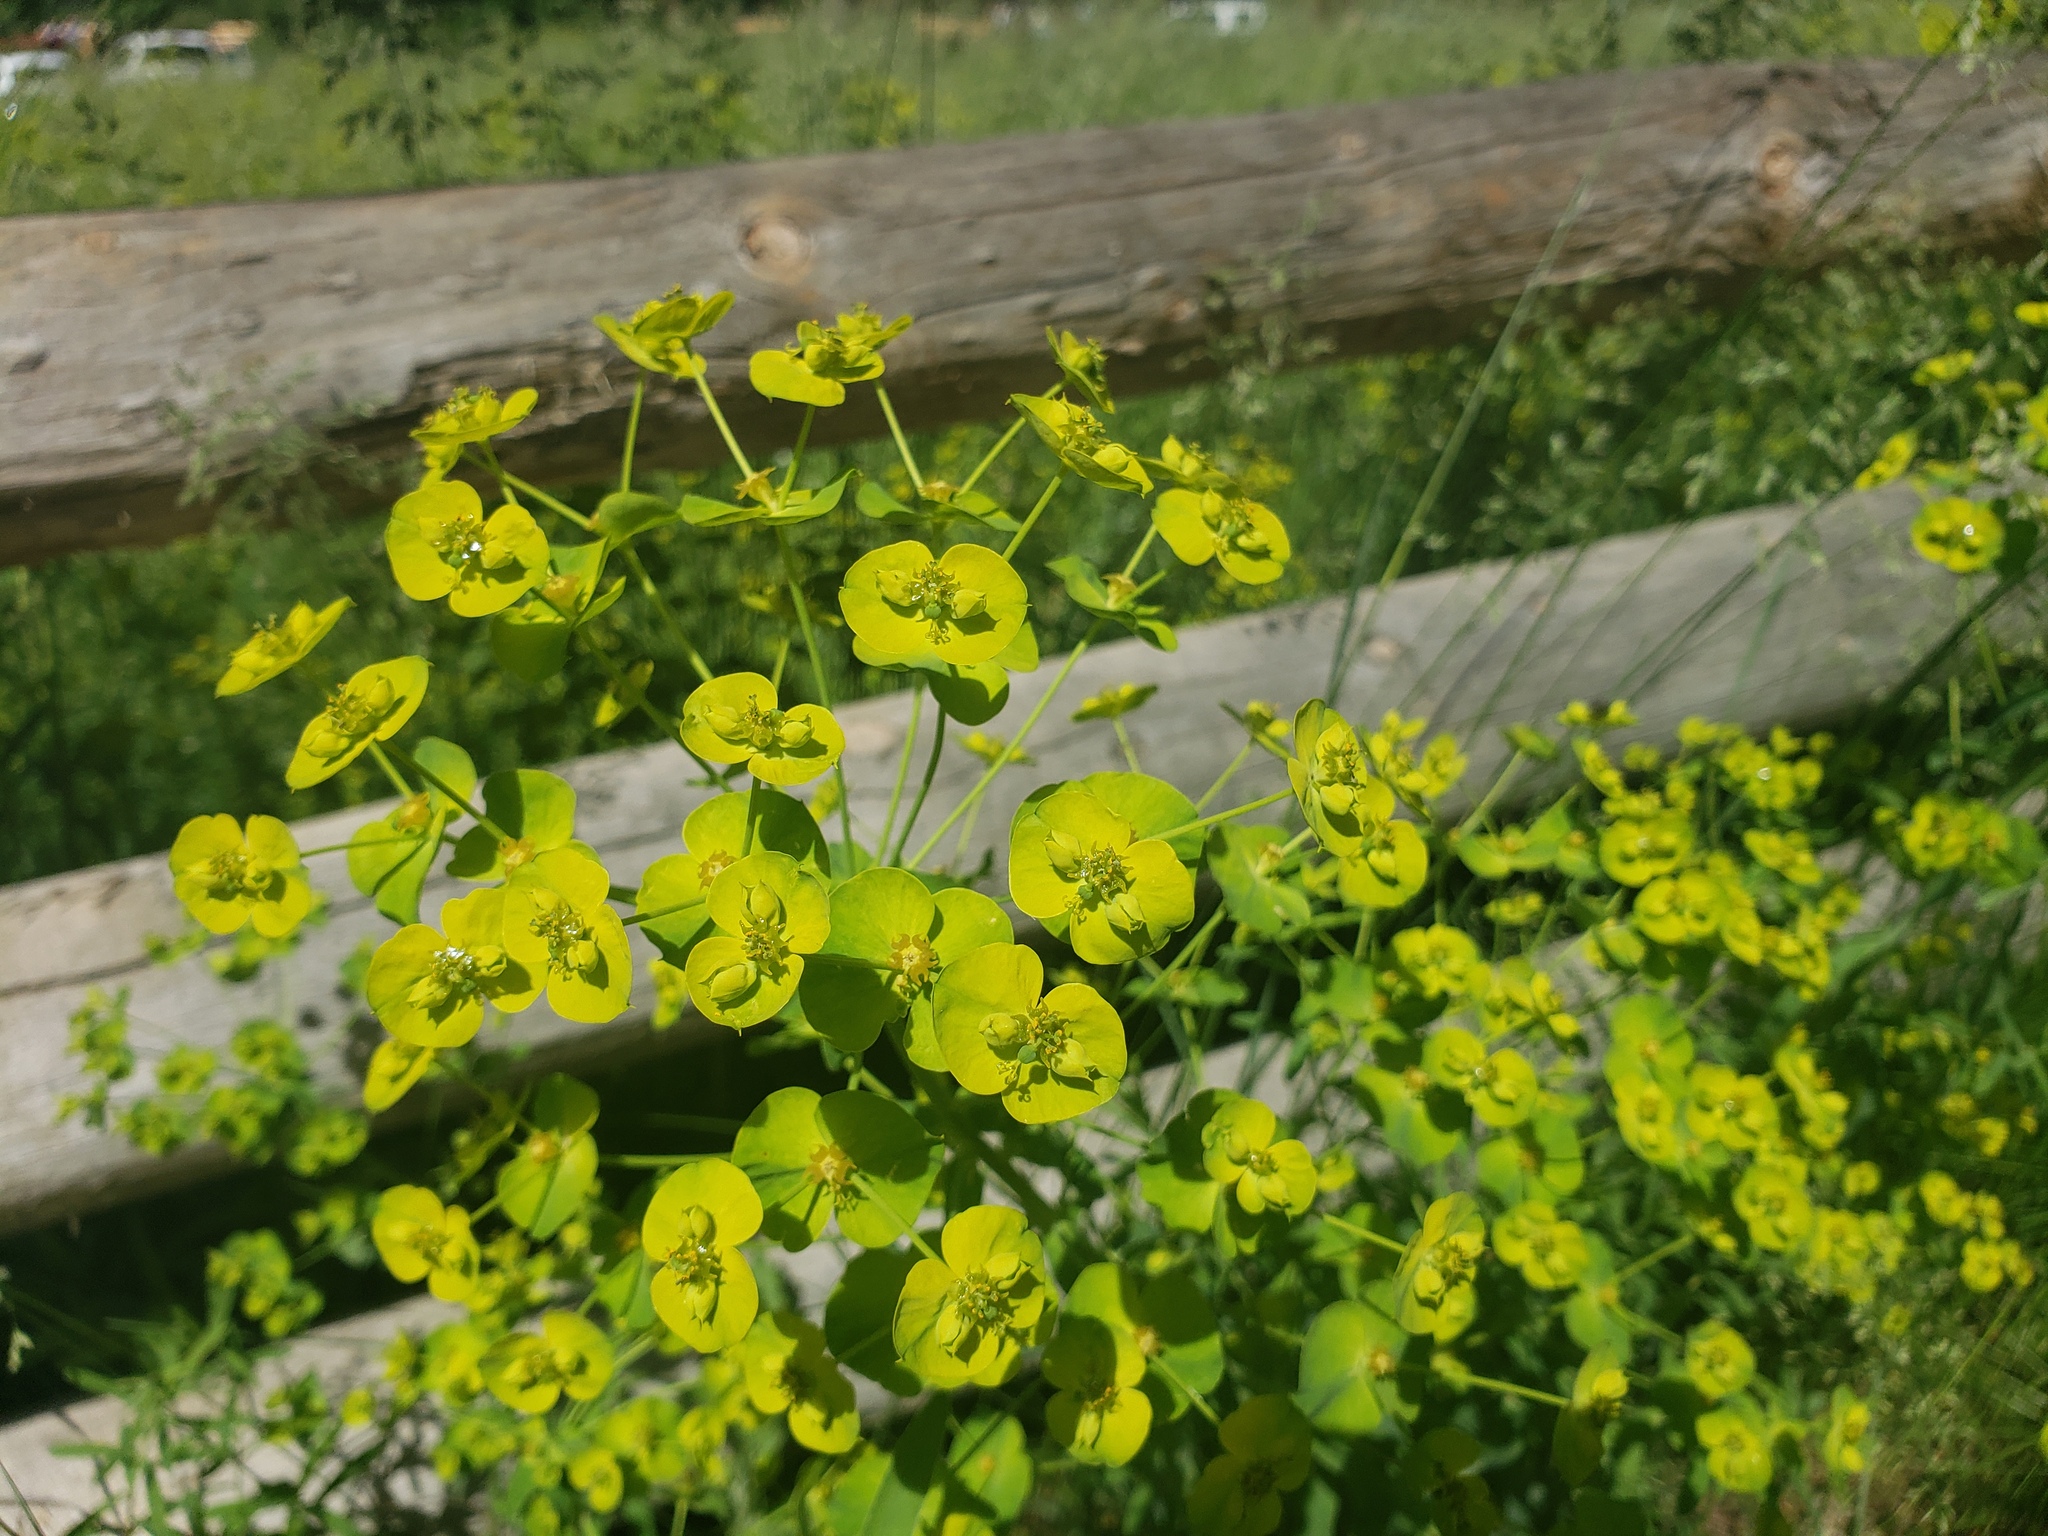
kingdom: Plantae
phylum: Tracheophyta
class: Magnoliopsida
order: Malpighiales
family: Euphorbiaceae
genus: Euphorbia
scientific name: Euphorbia virgata
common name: Leafy spurge
